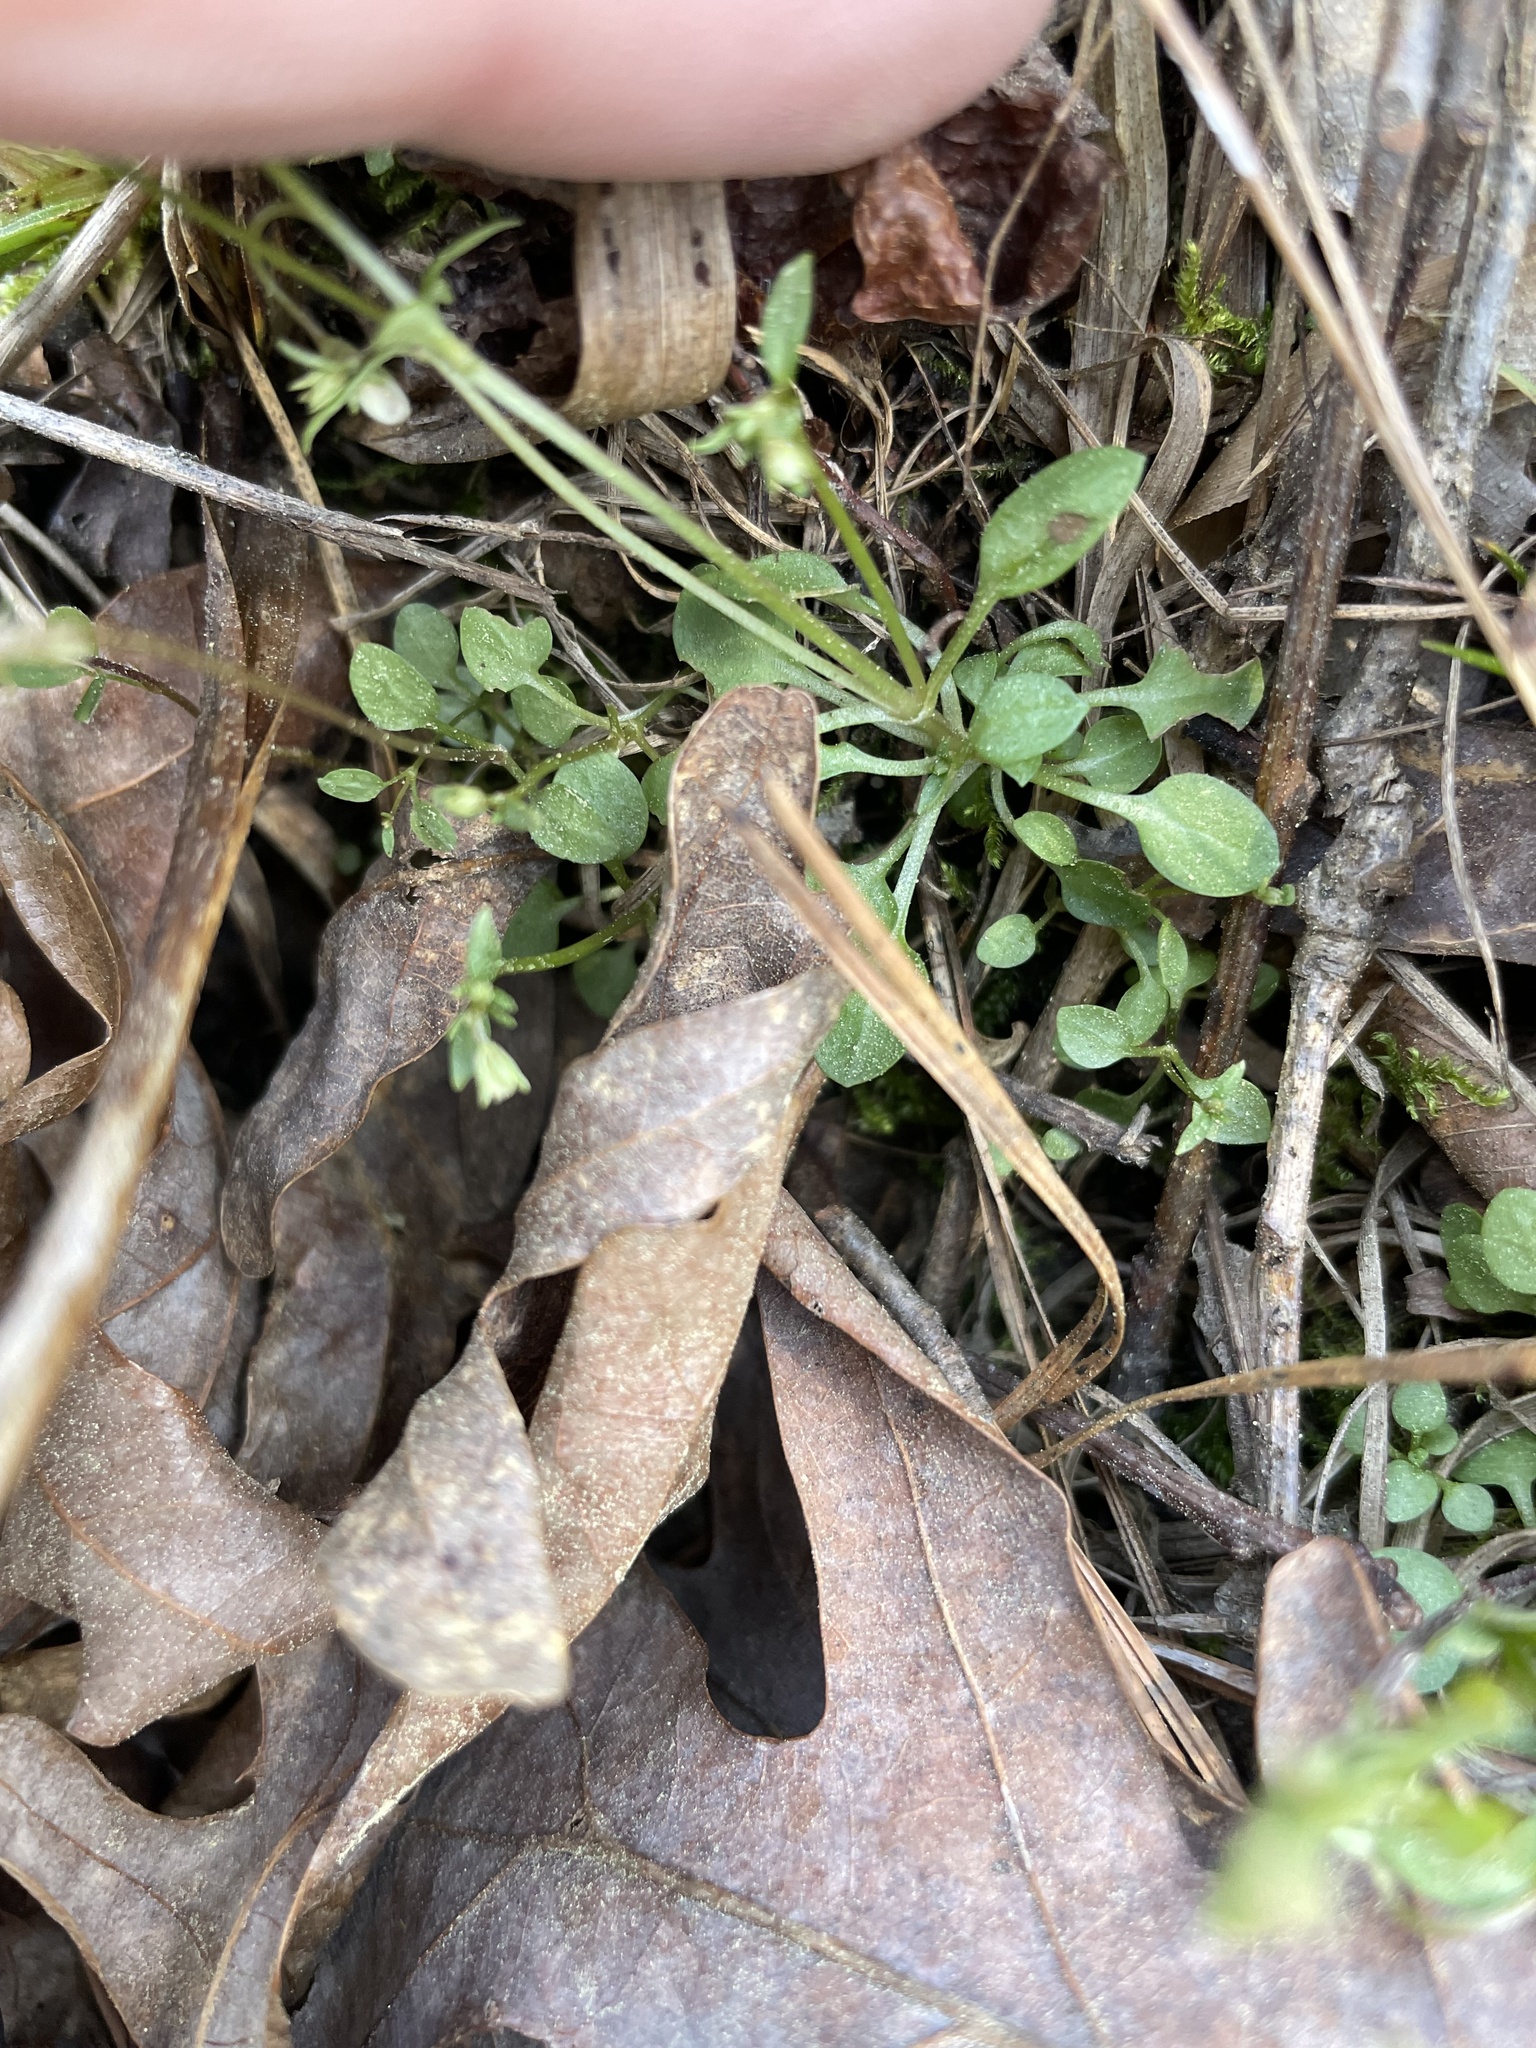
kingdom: Plantae
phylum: Tracheophyta
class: Magnoliopsida
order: Gentianales
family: Rubiaceae
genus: Houstonia
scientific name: Houstonia caerulea
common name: Bluets
